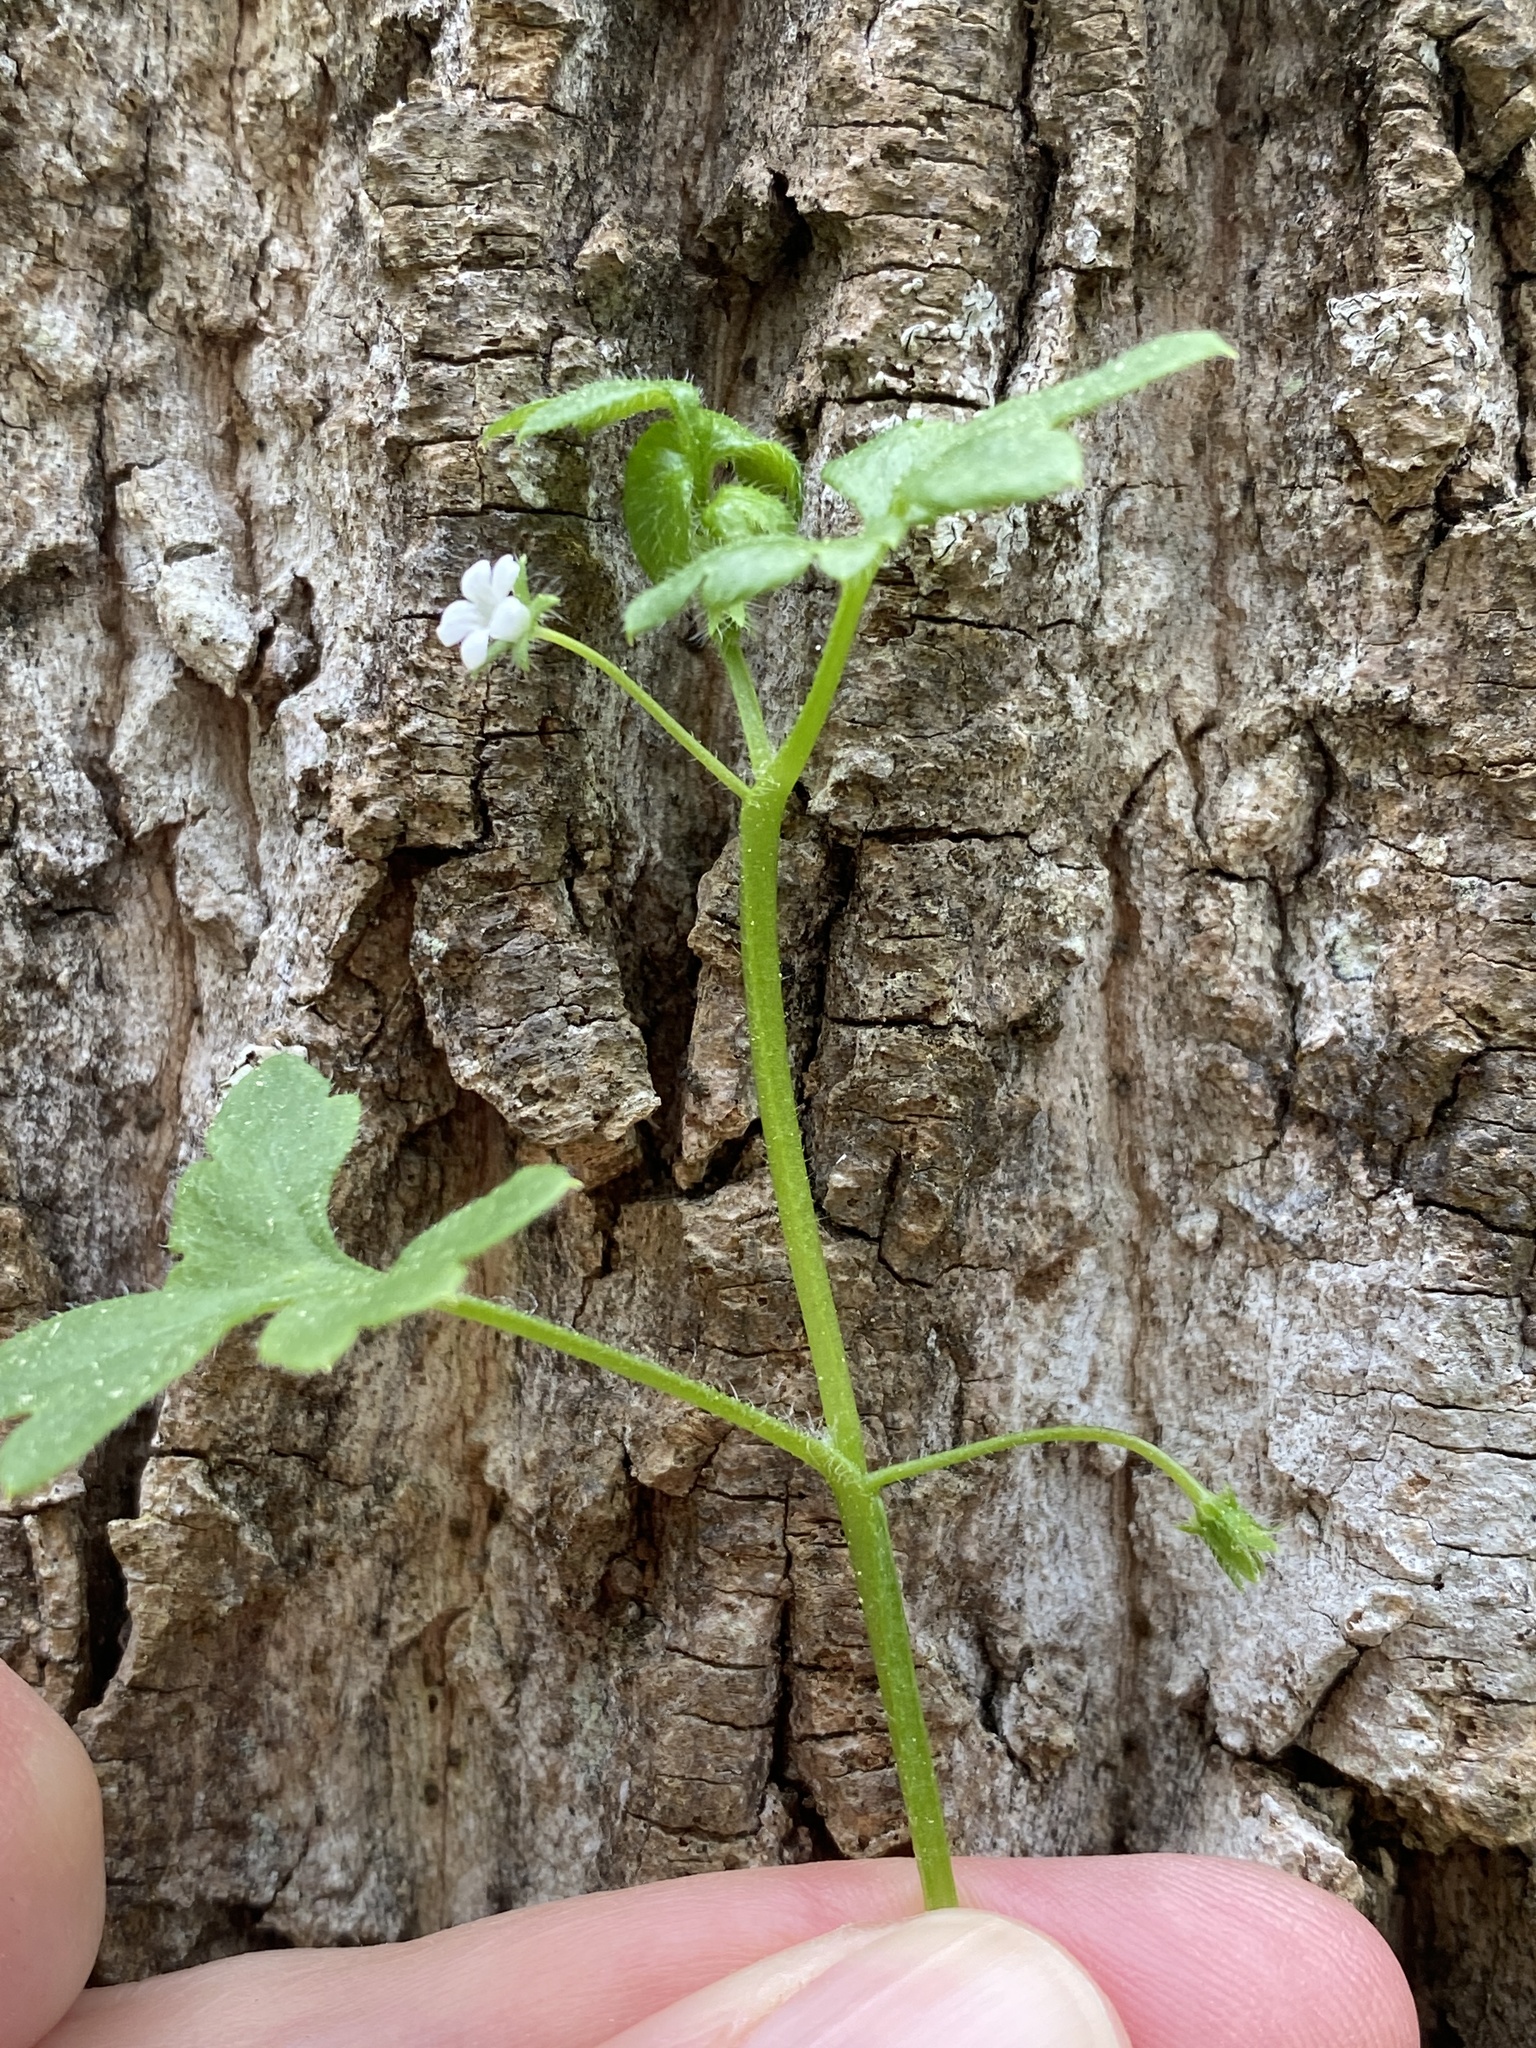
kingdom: Plantae
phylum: Tracheophyta
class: Magnoliopsida
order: Boraginales
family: Hydrophyllaceae
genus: Nemophila
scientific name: Nemophila aphylla
